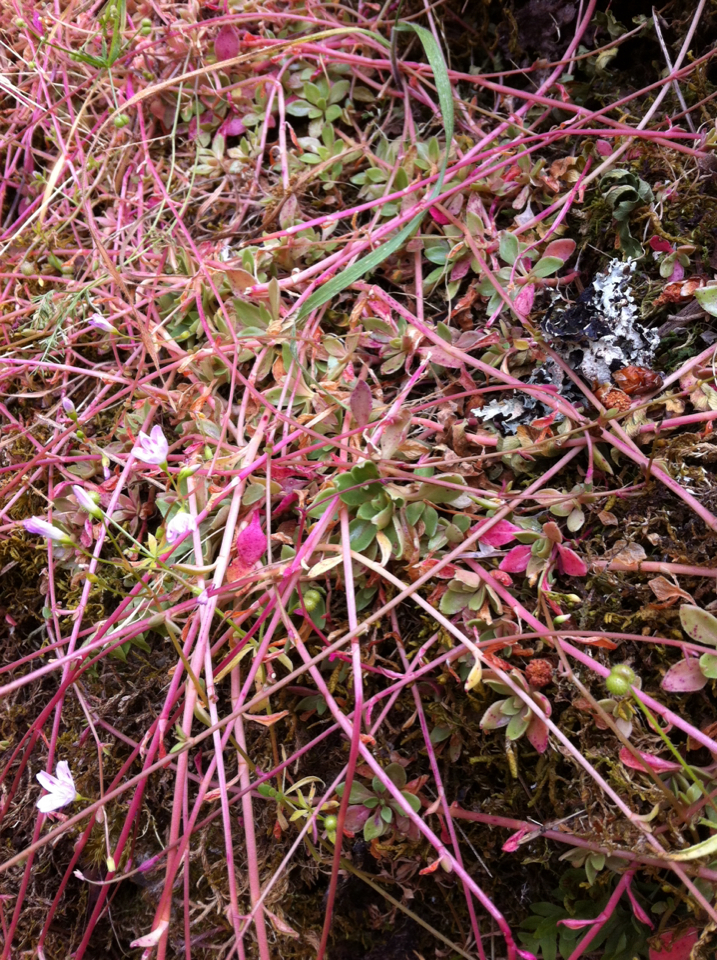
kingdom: Plantae
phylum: Tracheophyta
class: Magnoliopsida
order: Caryophyllales
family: Montiaceae
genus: Montia
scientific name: Montia parvifolia
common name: Small-leaved blinks
